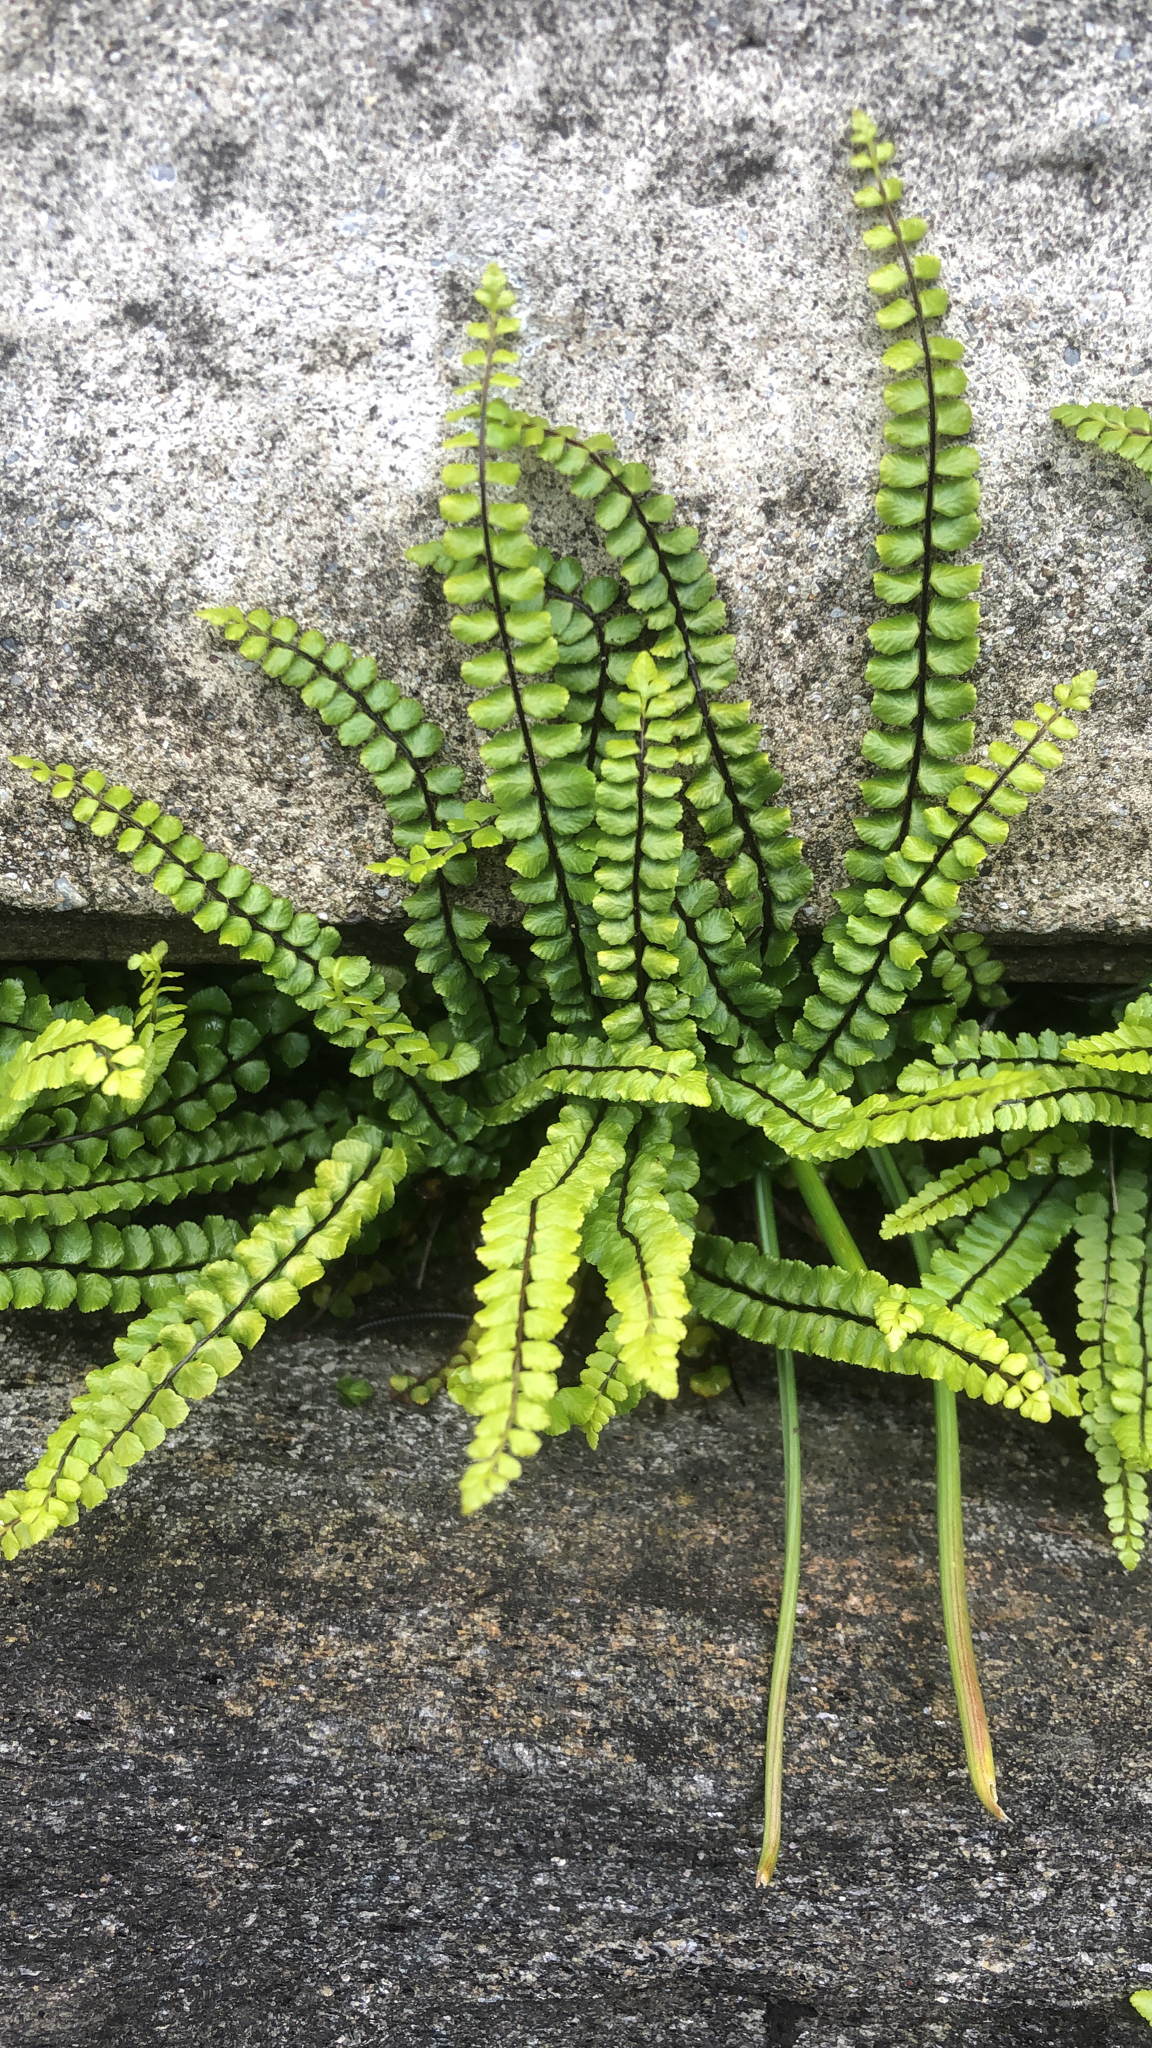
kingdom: Plantae
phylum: Tracheophyta
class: Polypodiopsida
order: Polypodiales
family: Aspleniaceae
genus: Asplenium
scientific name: Asplenium trichomanes
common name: Maidenhair spleenwort
